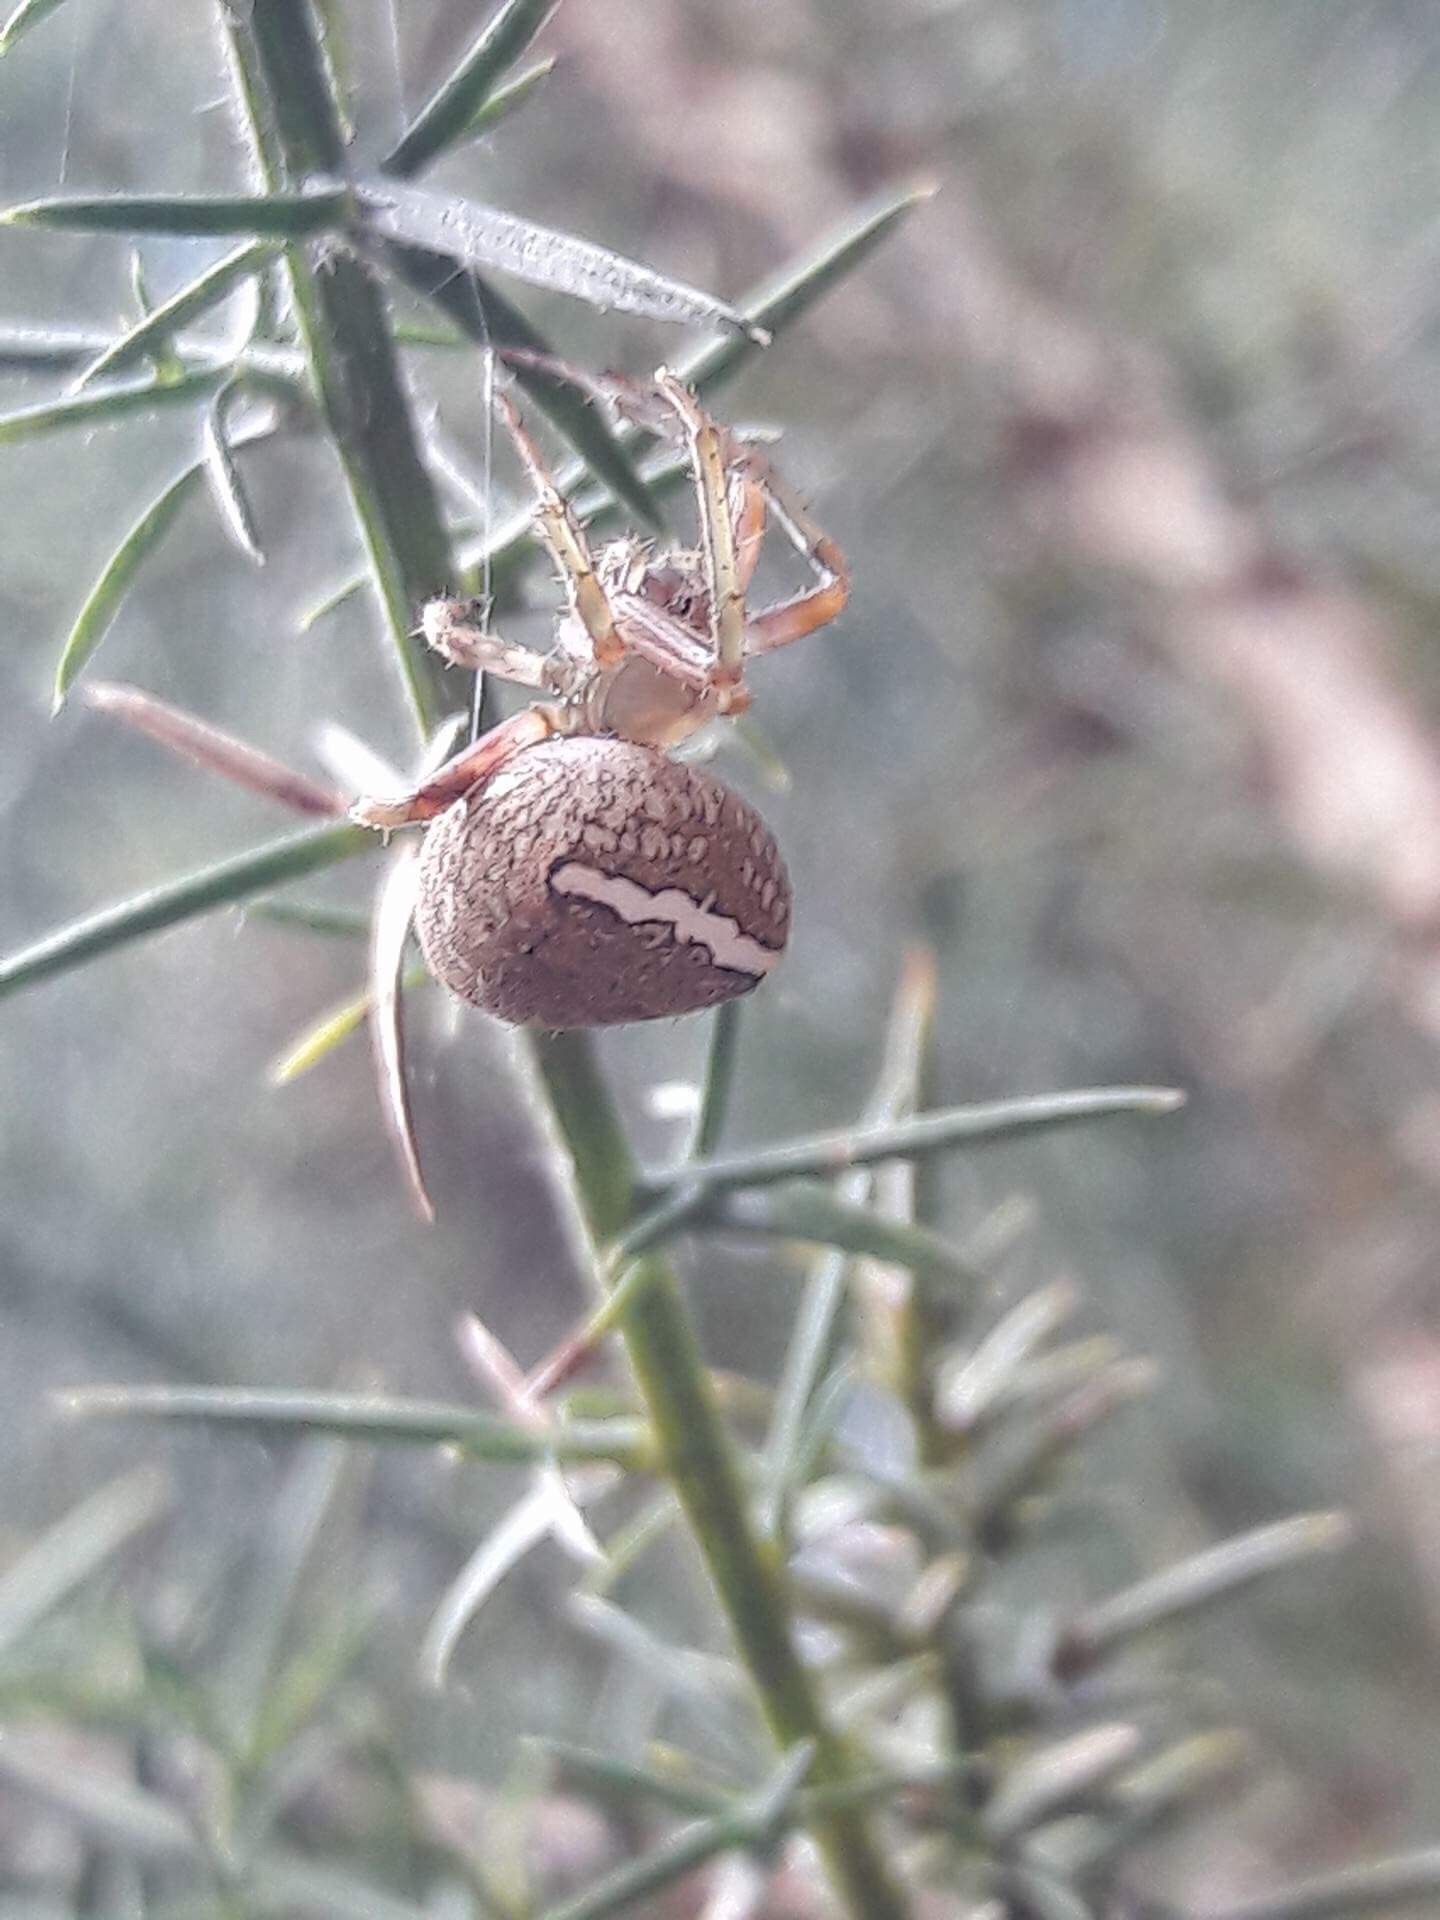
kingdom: Animalia
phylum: Arthropoda
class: Arachnida
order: Araneae
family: Araneidae
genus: Zealaranea
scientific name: Zealaranea crassa
